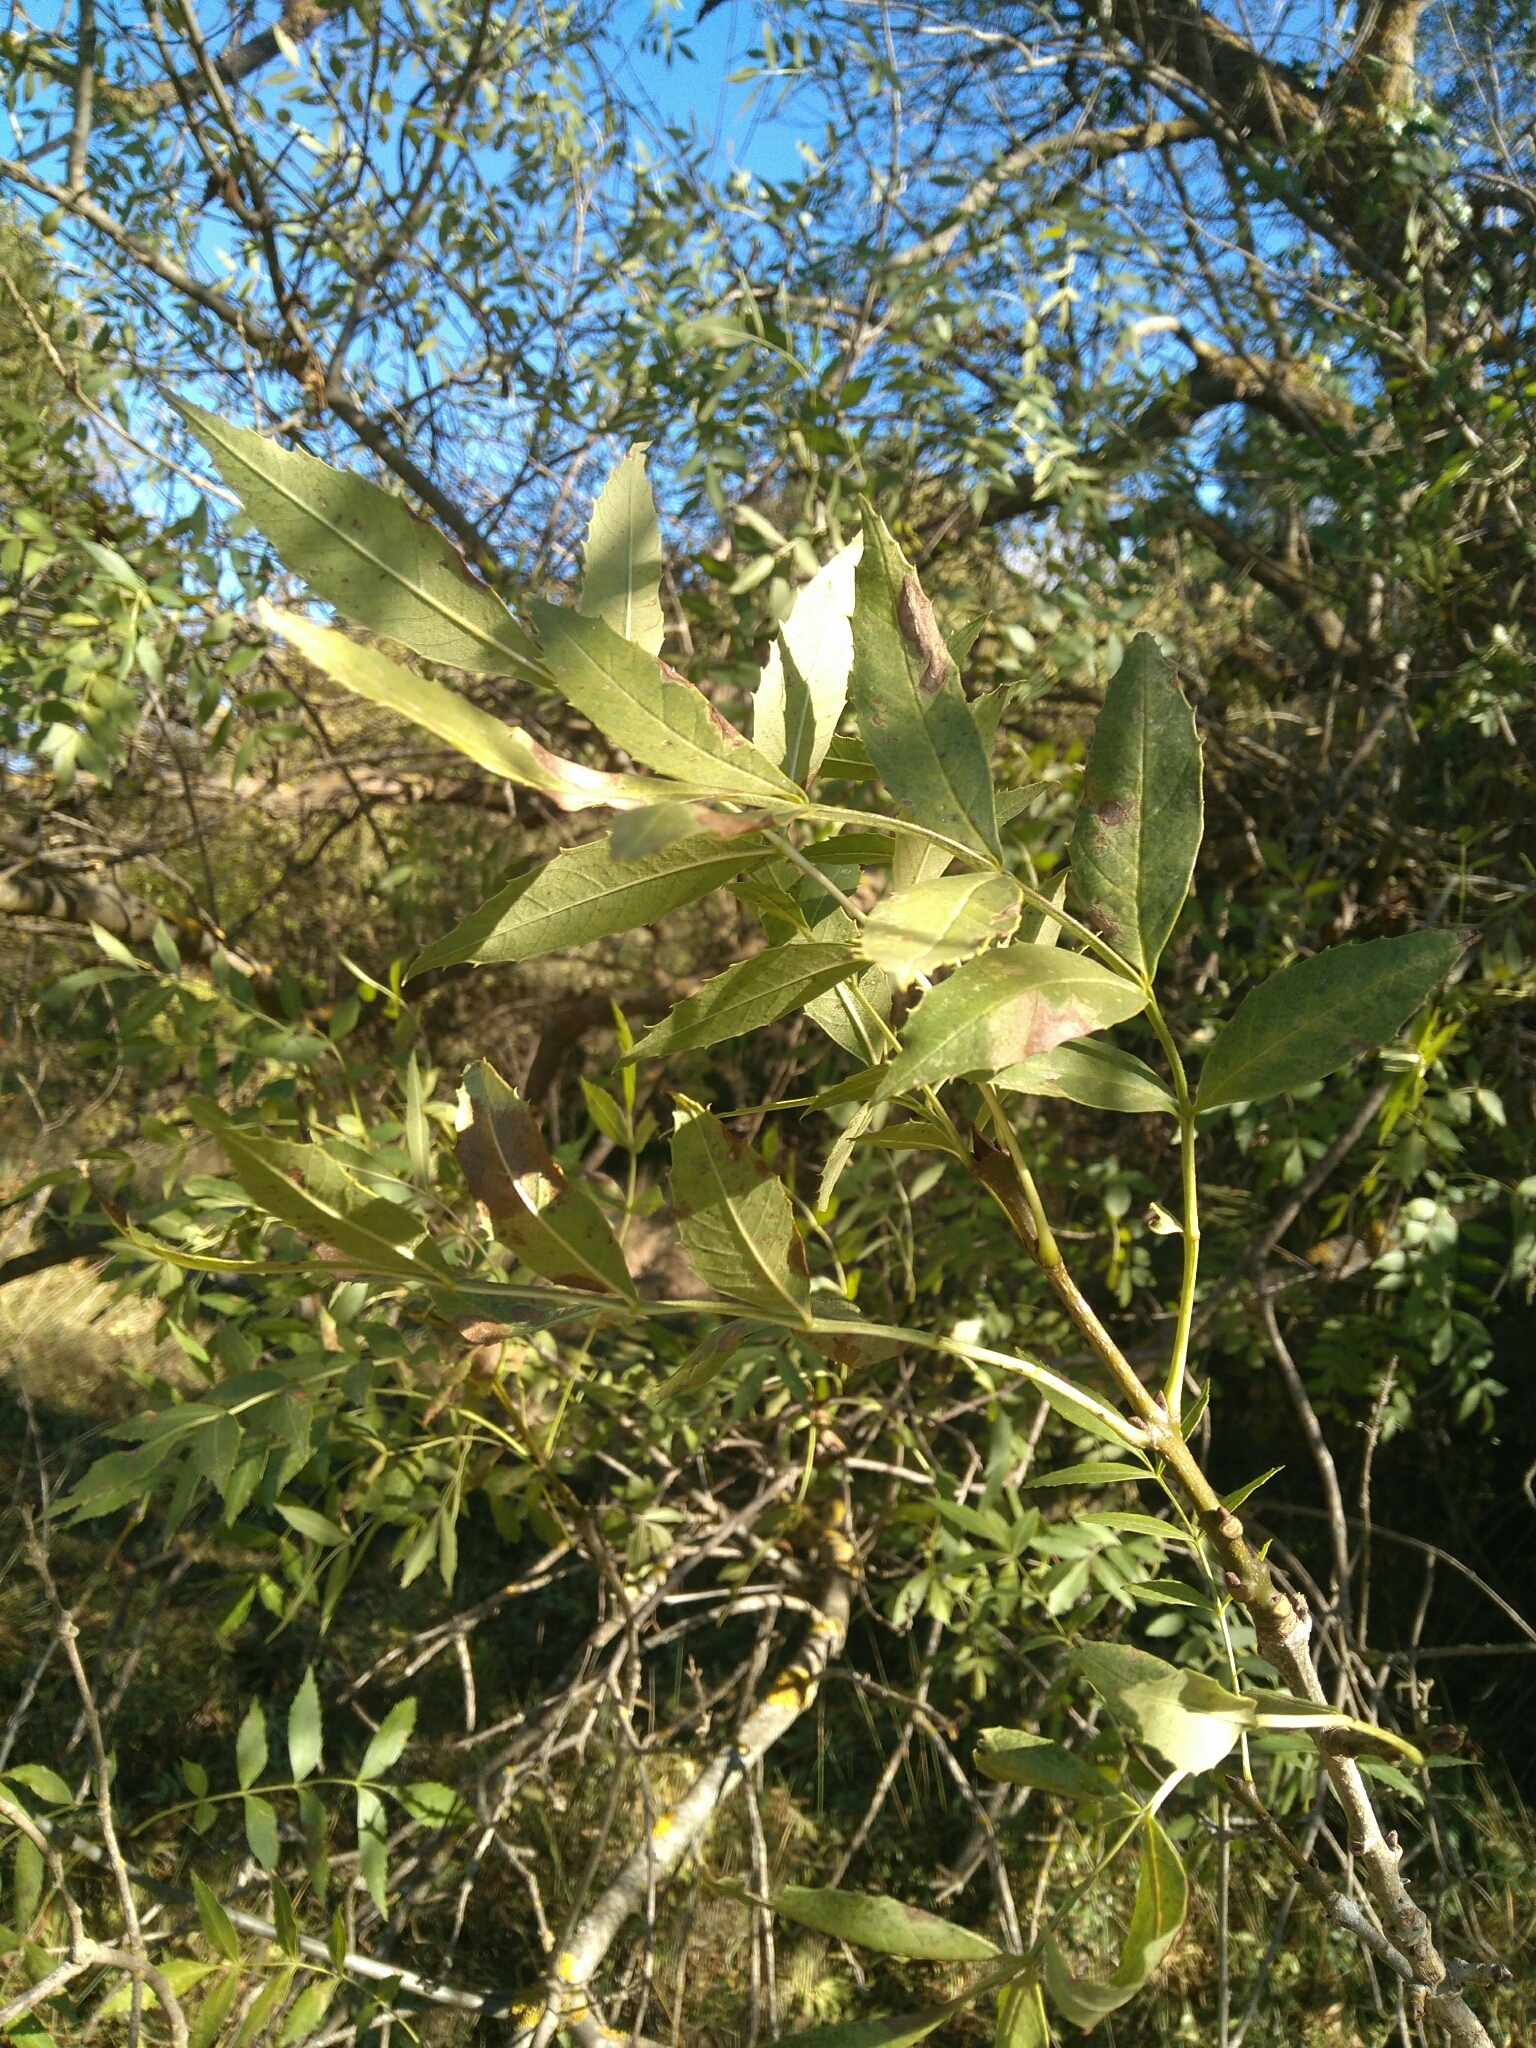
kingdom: Plantae
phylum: Tracheophyta
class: Magnoliopsida
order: Lamiales
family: Oleaceae
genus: Fraxinus
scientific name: Fraxinus angustifolia
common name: Narrow-leafed ash
